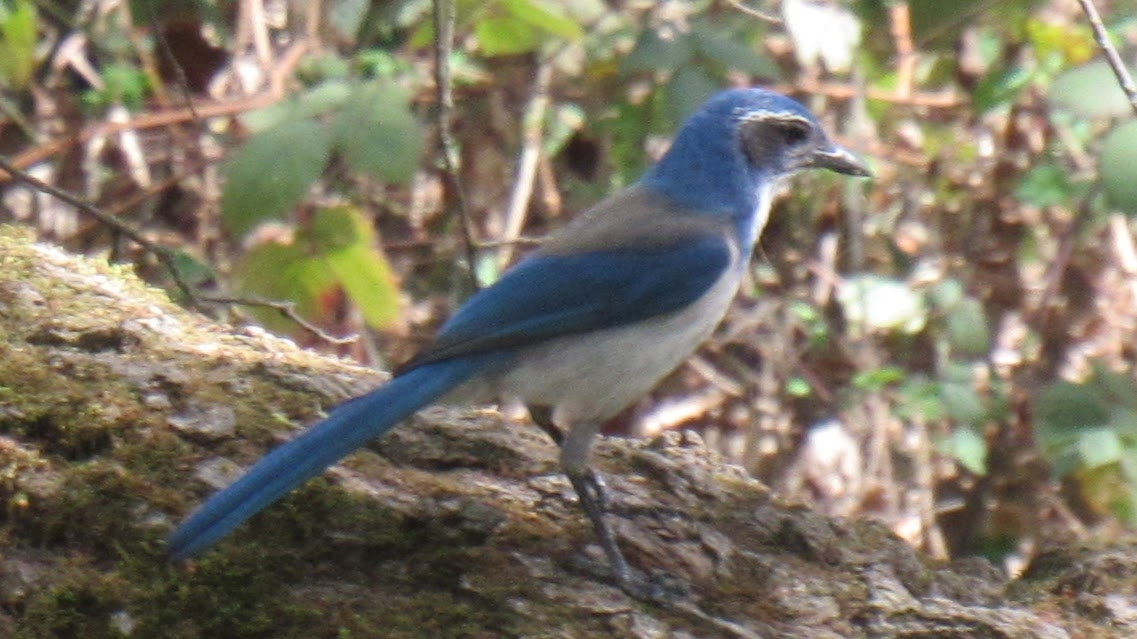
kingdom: Animalia
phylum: Chordata
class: Aves
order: Passeriformes
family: Corvidae
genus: Aphelocoma
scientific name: Aphelocoma californica
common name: California scrub-jay
